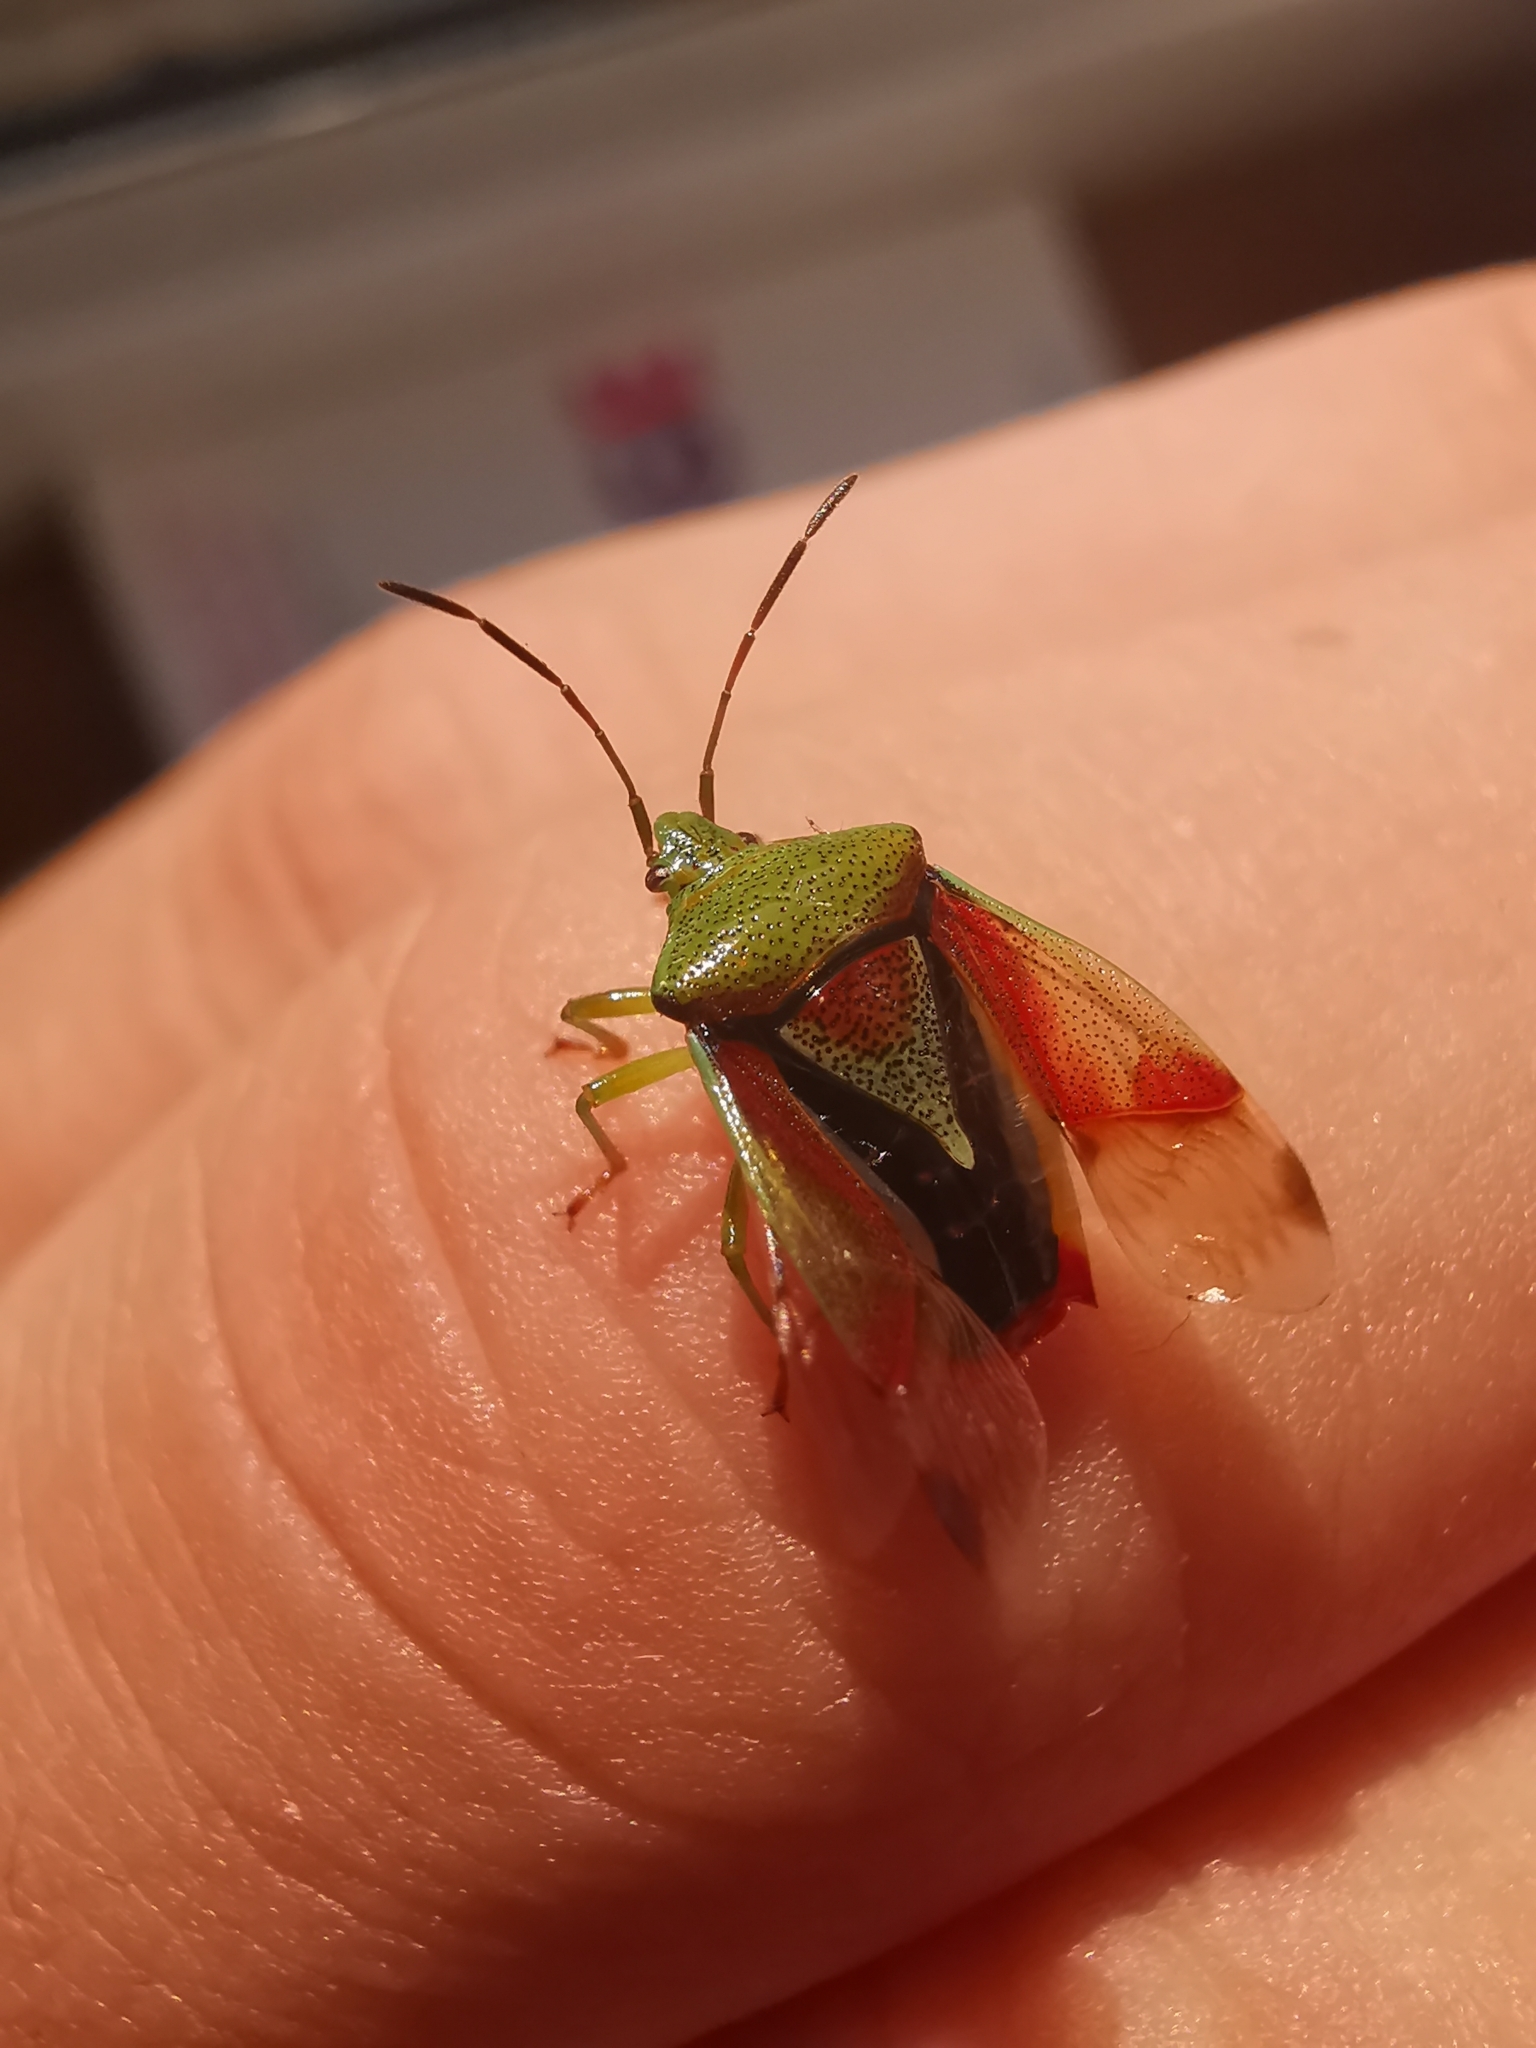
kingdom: Animalia
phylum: Arthropoda
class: Insecta
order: Hemiptera
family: Acanthosomatidae
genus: Elasmostethus
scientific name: Elasmostethus interstinctus
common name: Birch shieldbug
